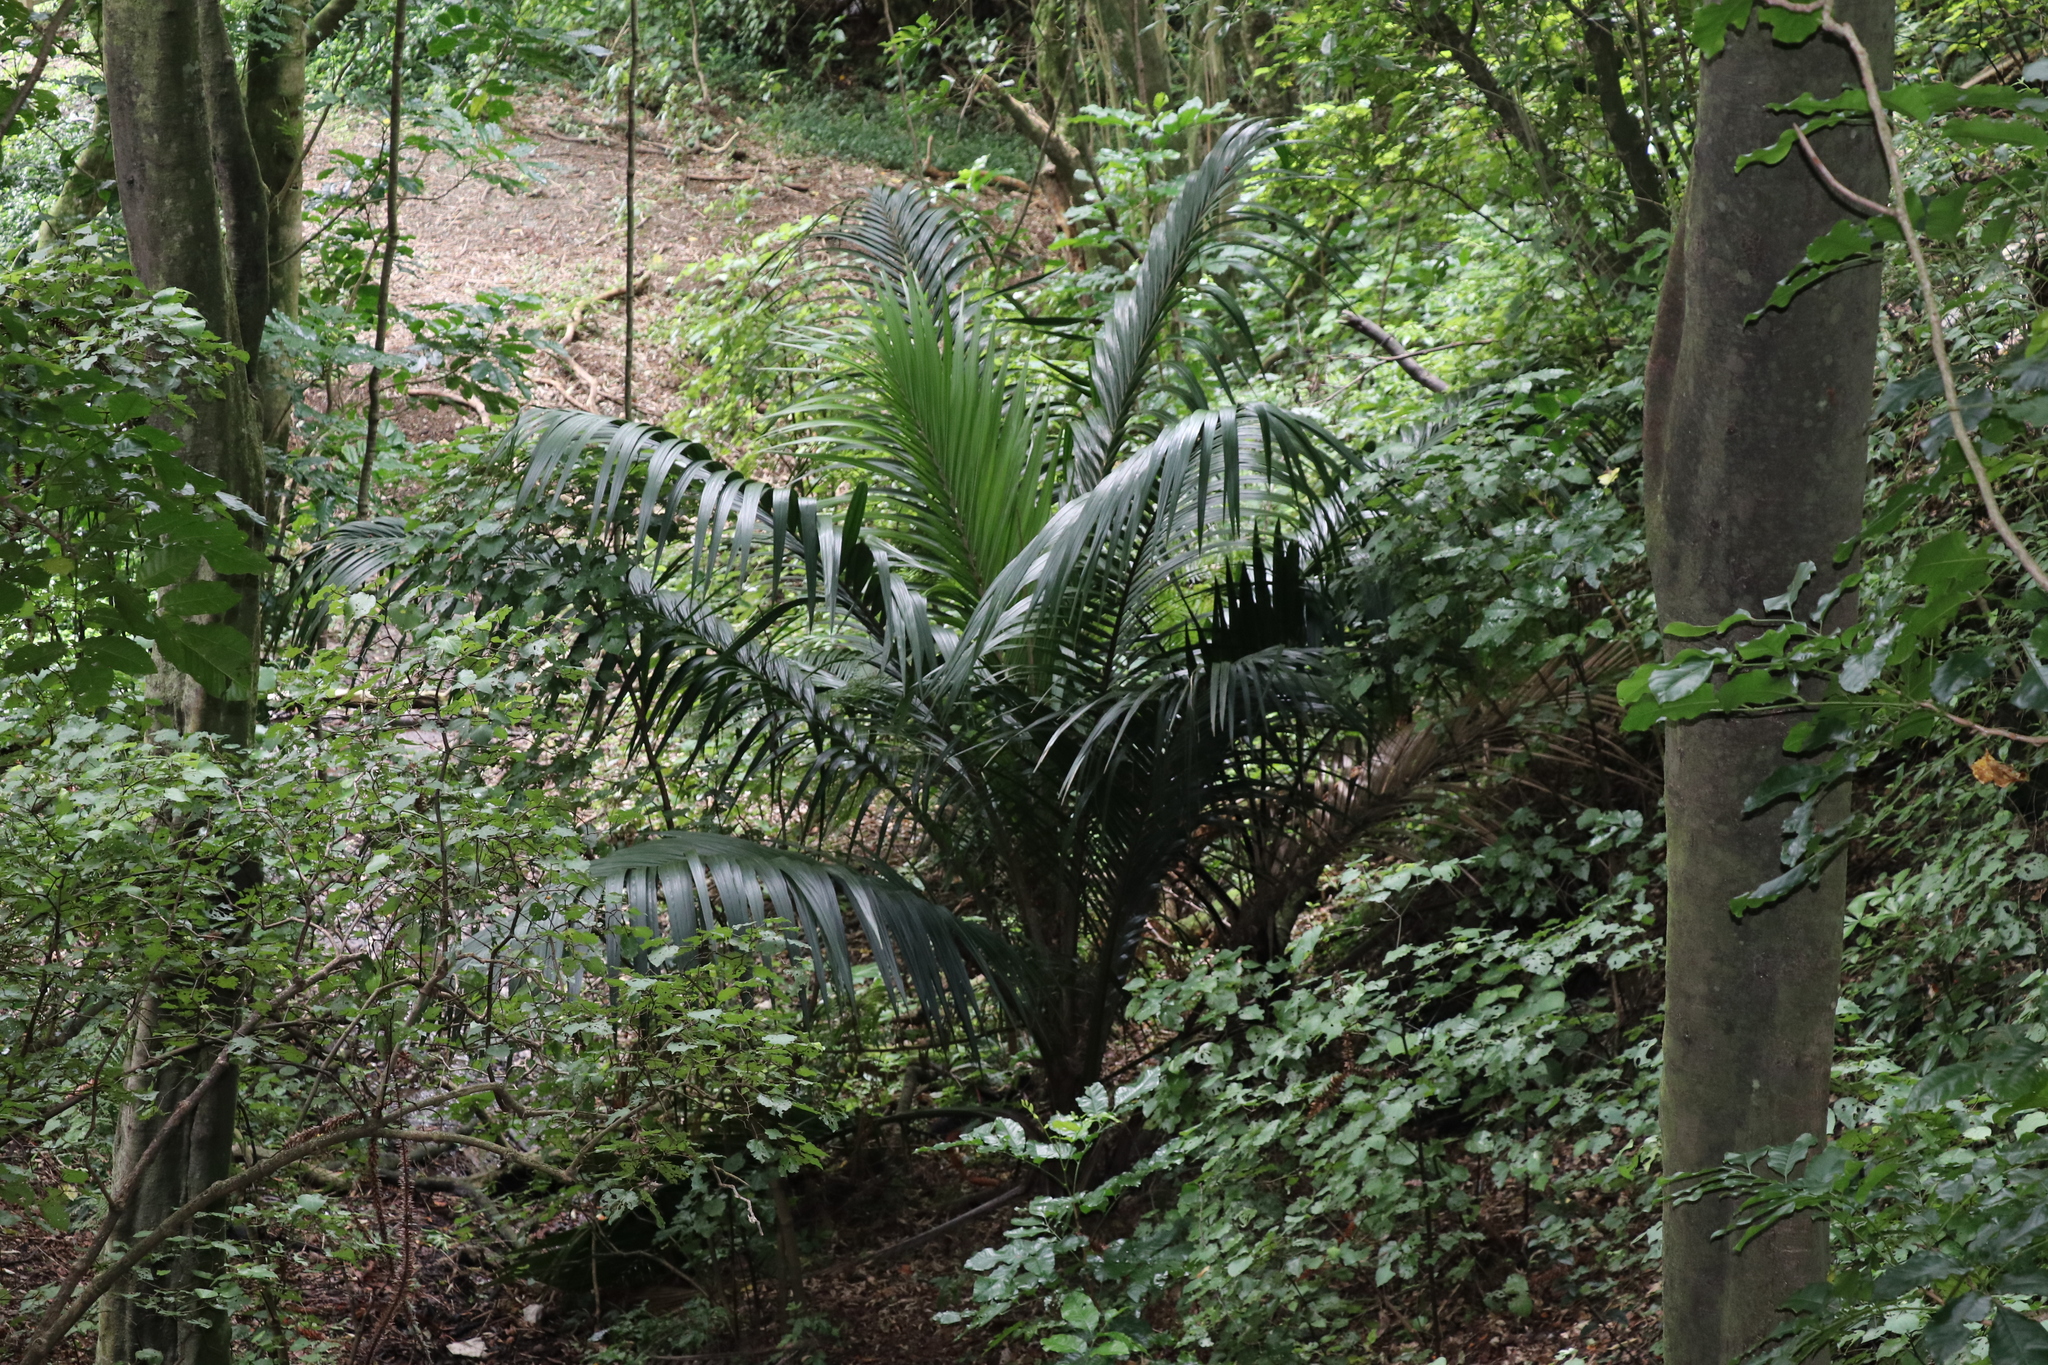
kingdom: Plantae
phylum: Tracheophyta
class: Liliopsida
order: Arecales
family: Arecaceae
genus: Rhopalostylis
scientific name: Rhopalostylis sapida
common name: Feather-duster palm
